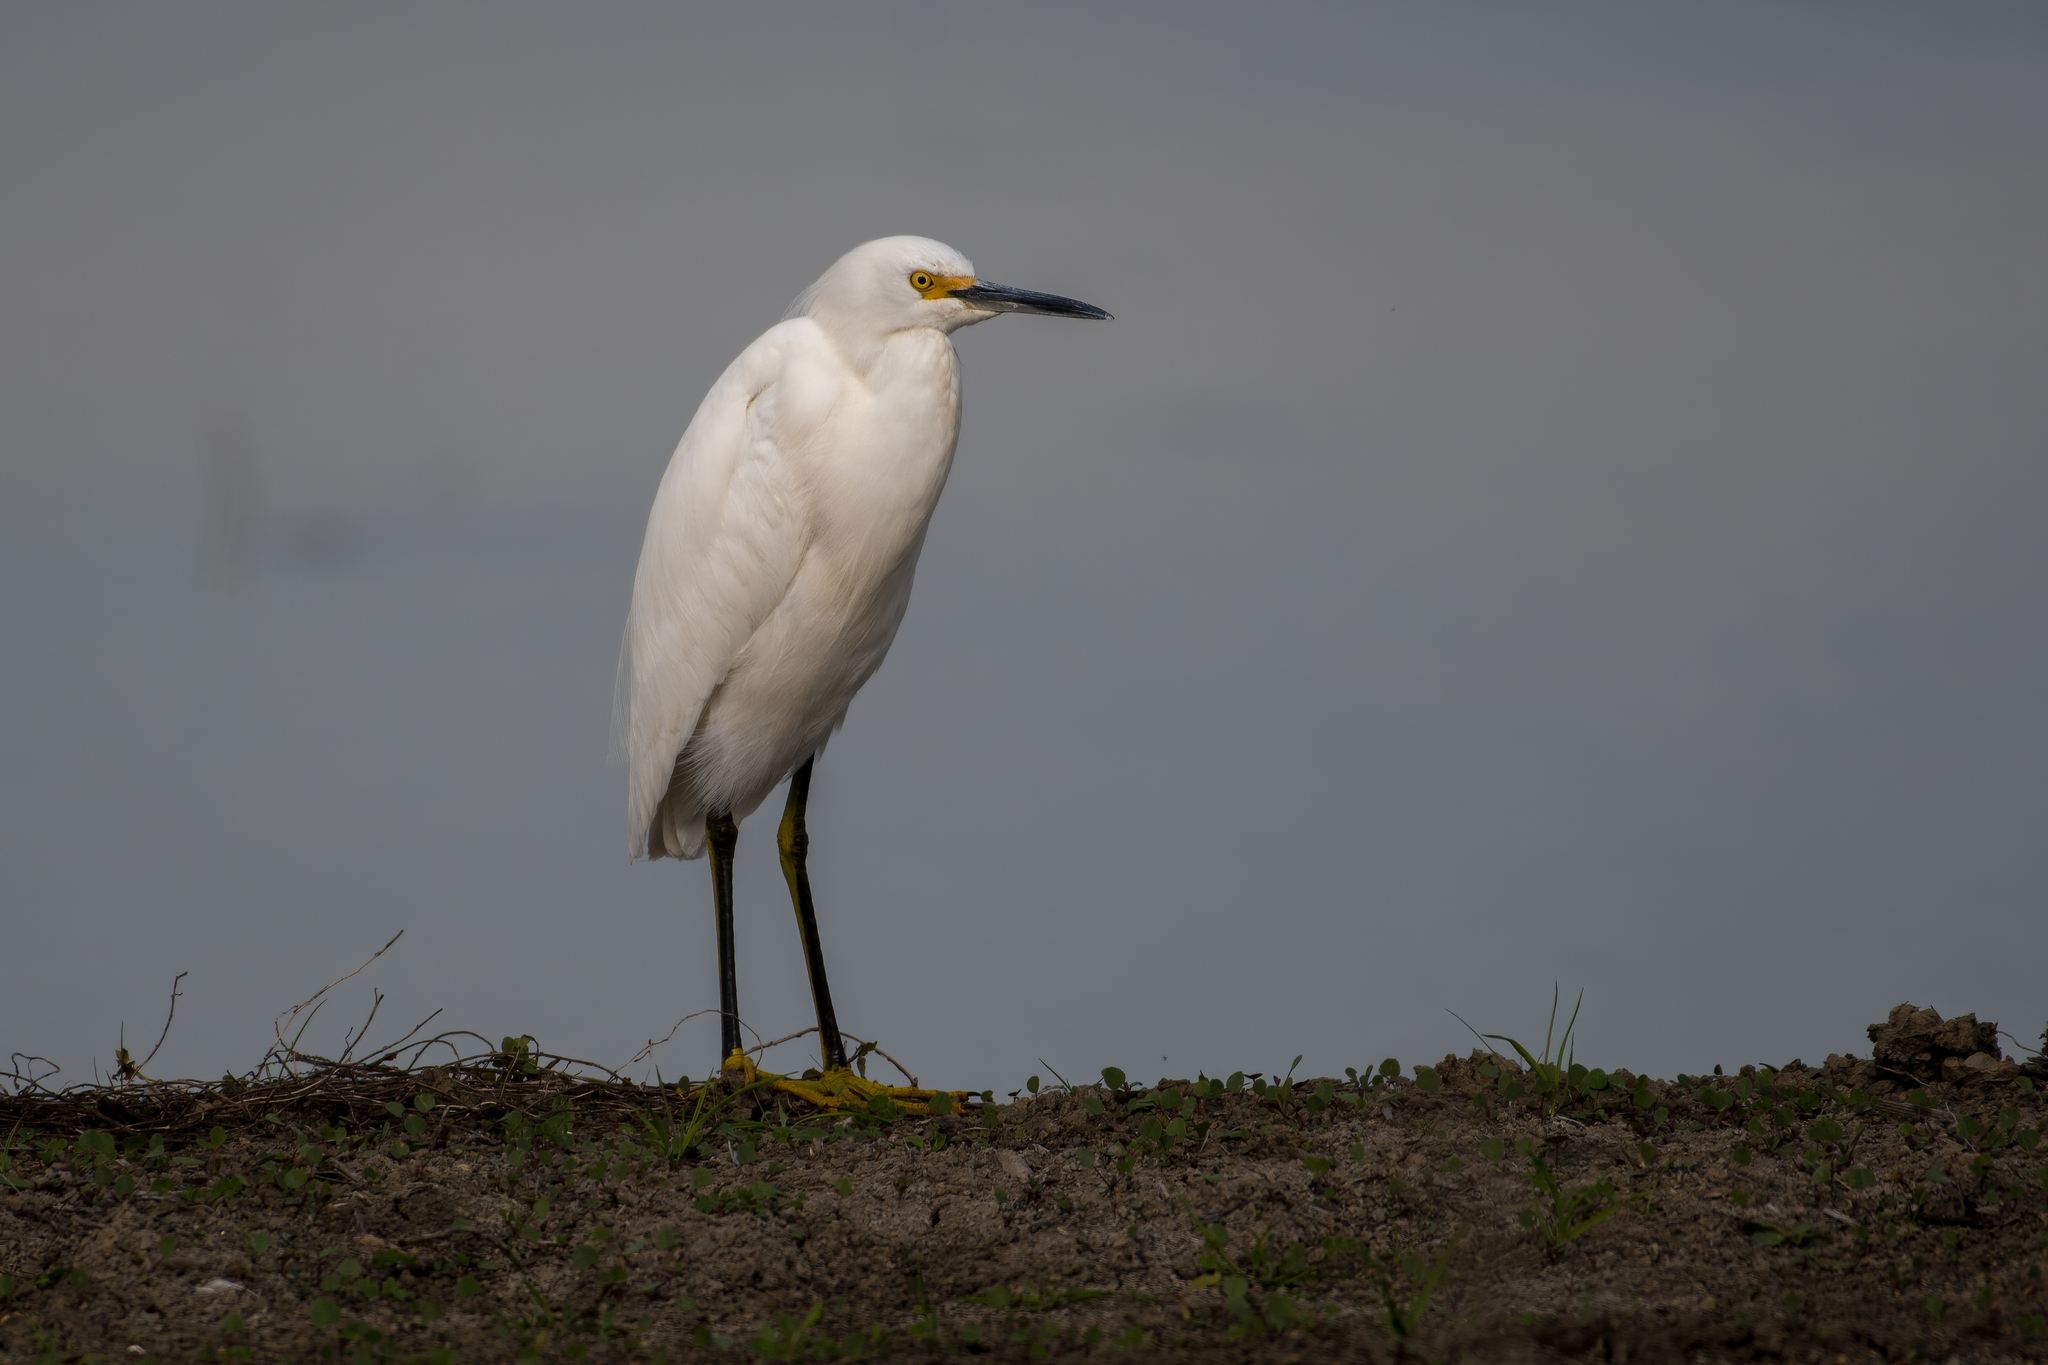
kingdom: Animalia
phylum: Chordata
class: Aves
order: Pelecaniformes
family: Ardeidae
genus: Egretta
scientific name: Egretta thula
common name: Snowy egret
